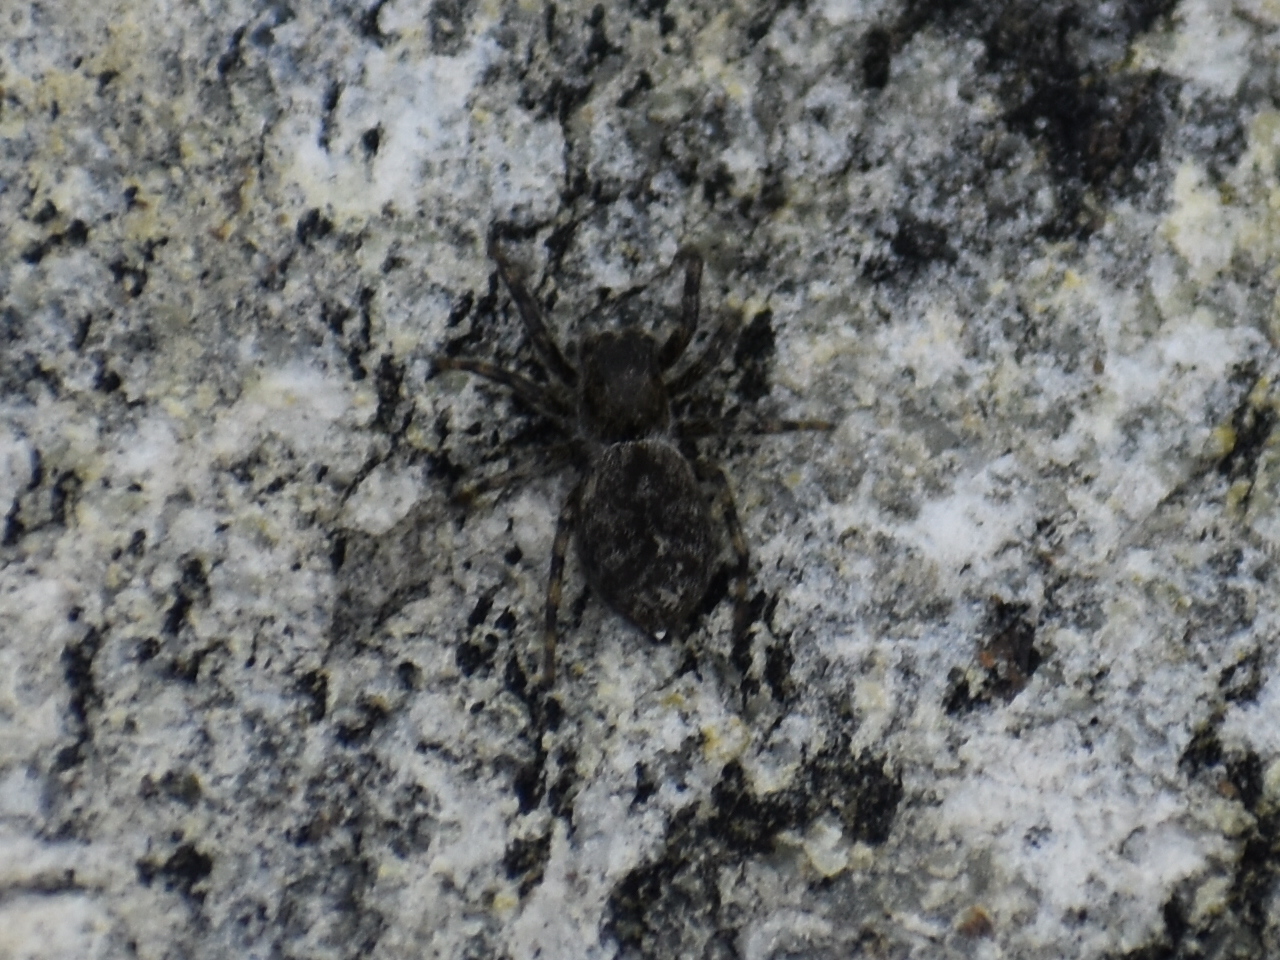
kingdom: Animalia
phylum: Arthropoda
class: Arachnida
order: Araneae
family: Salticidae
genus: Hakka
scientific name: Hakka himeshimensis
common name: Jumping spider
